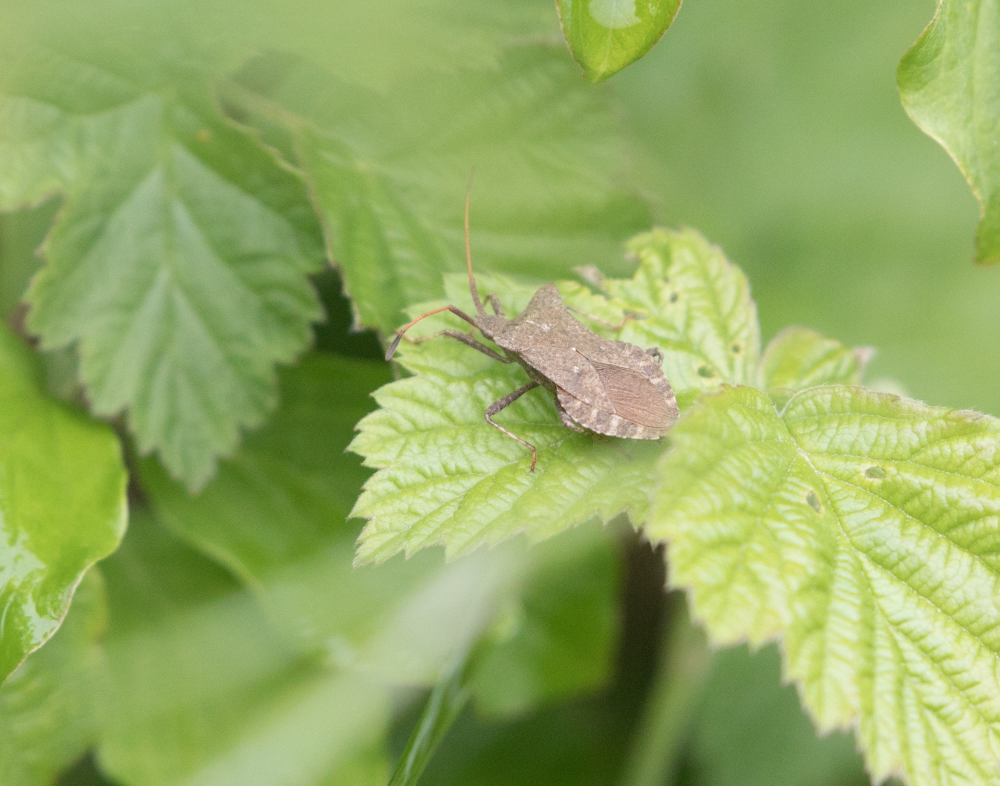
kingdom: Animalia
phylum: Arthropoda
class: Insecta
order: Hemiptera
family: Coreidae
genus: Coreus
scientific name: Coreus marginatus
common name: Dock bug
